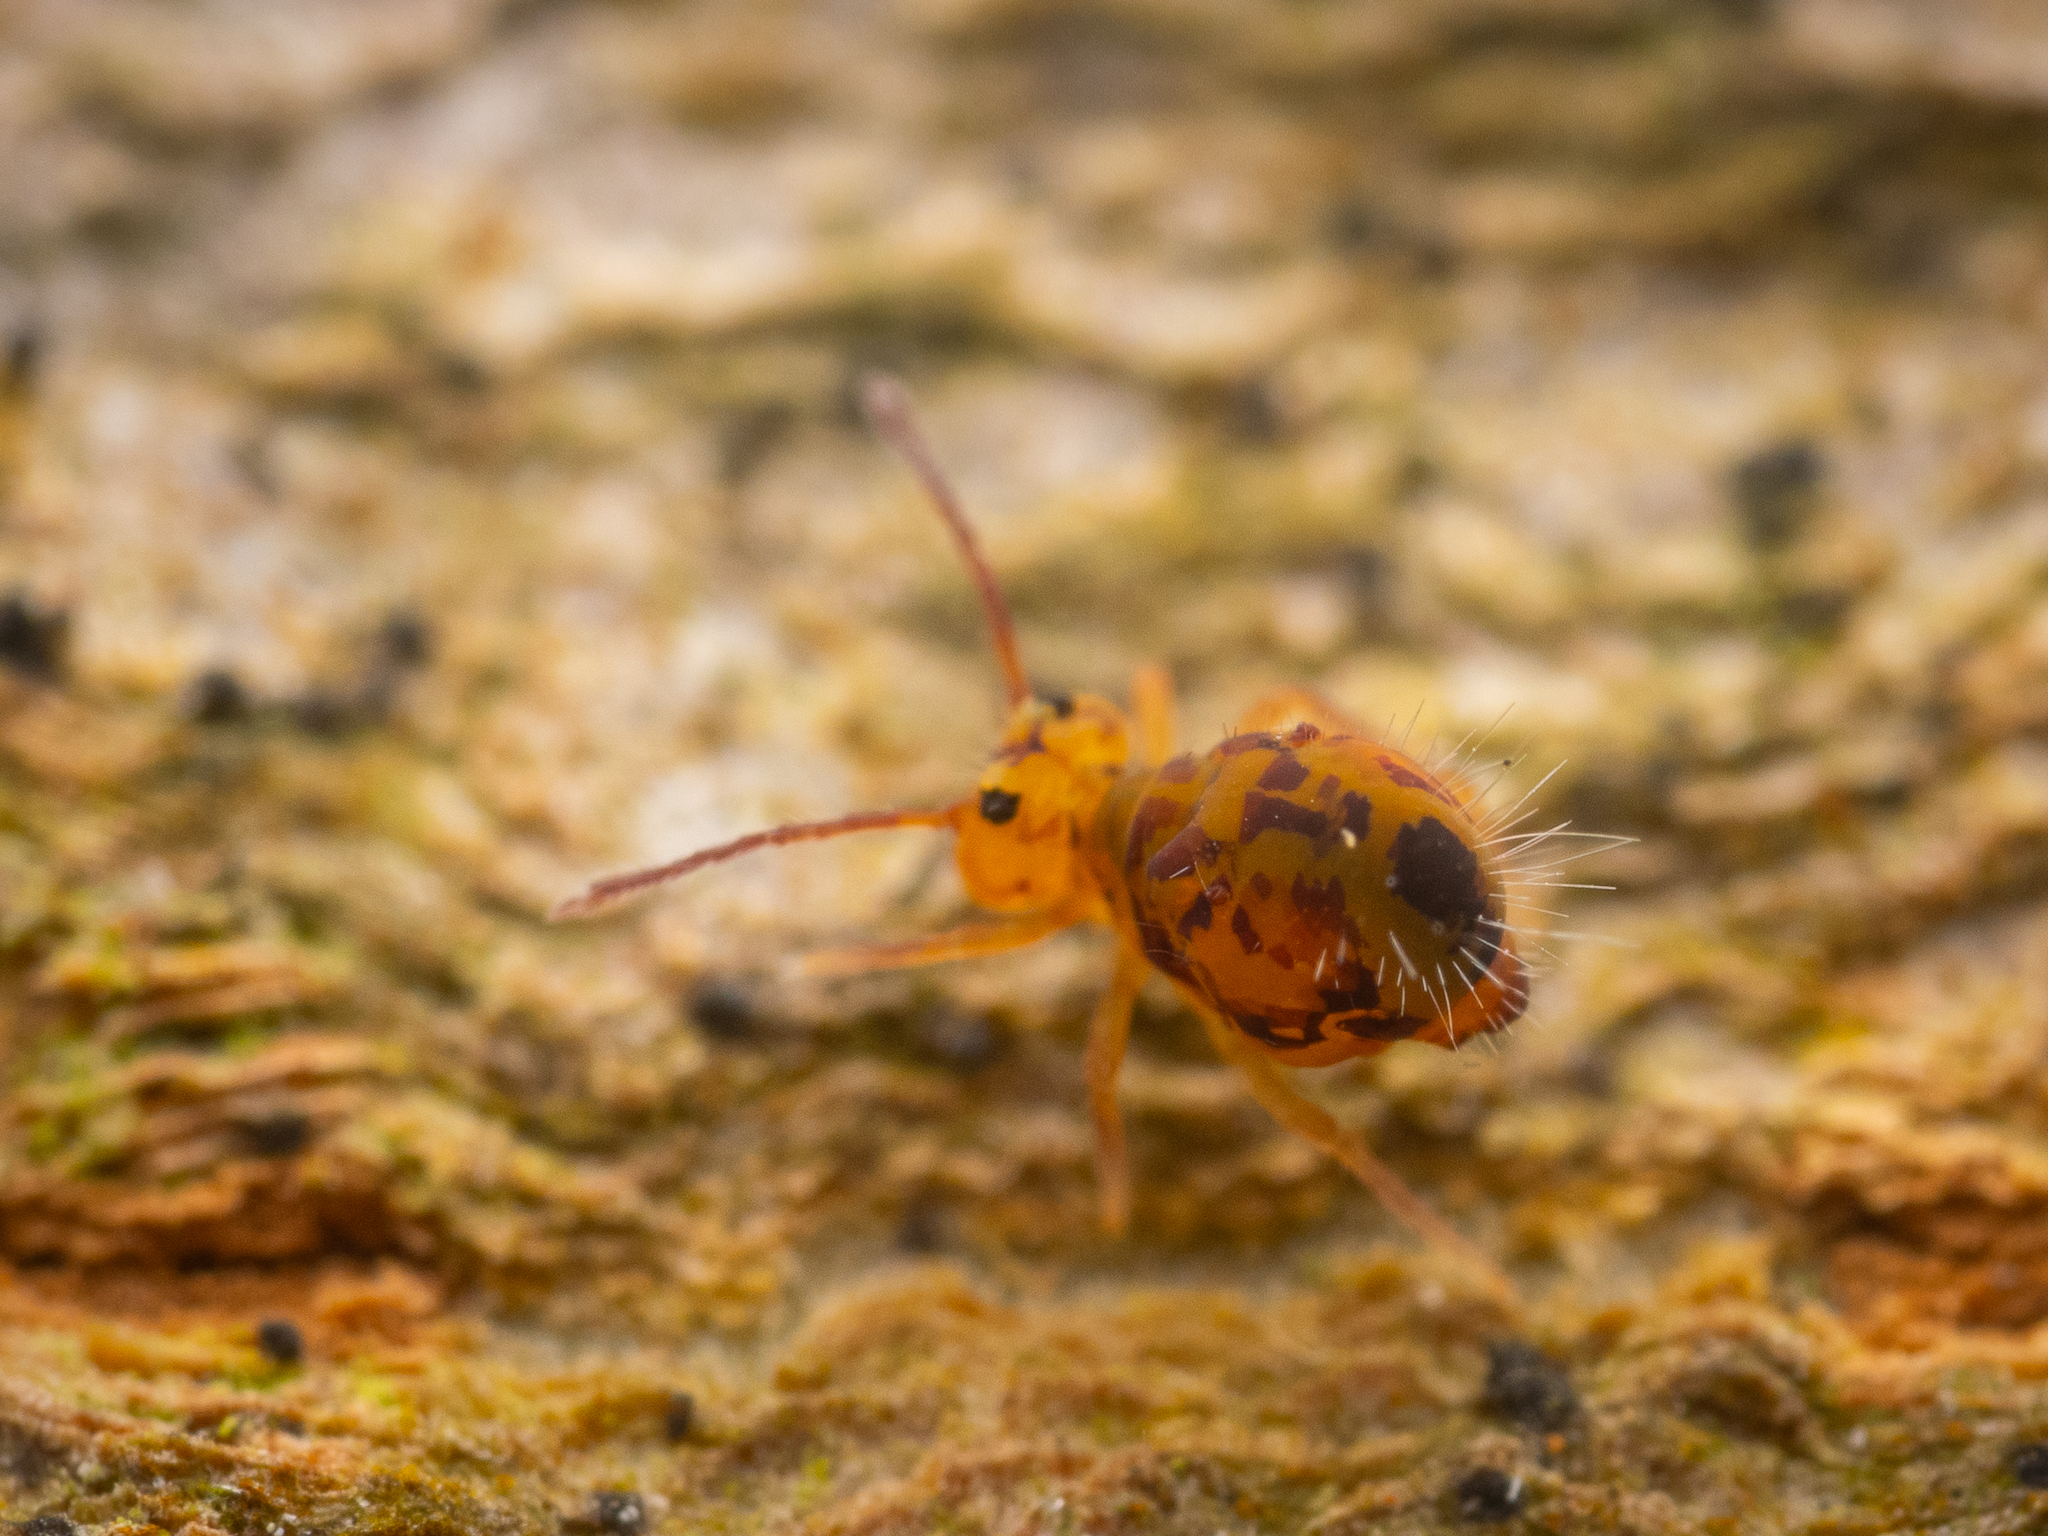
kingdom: Animalia
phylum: Arthropoda
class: Collembola
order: Symphypleona
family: Dicyrtomidae
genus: Dicyrtomina
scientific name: Dicyrtomina ornata
